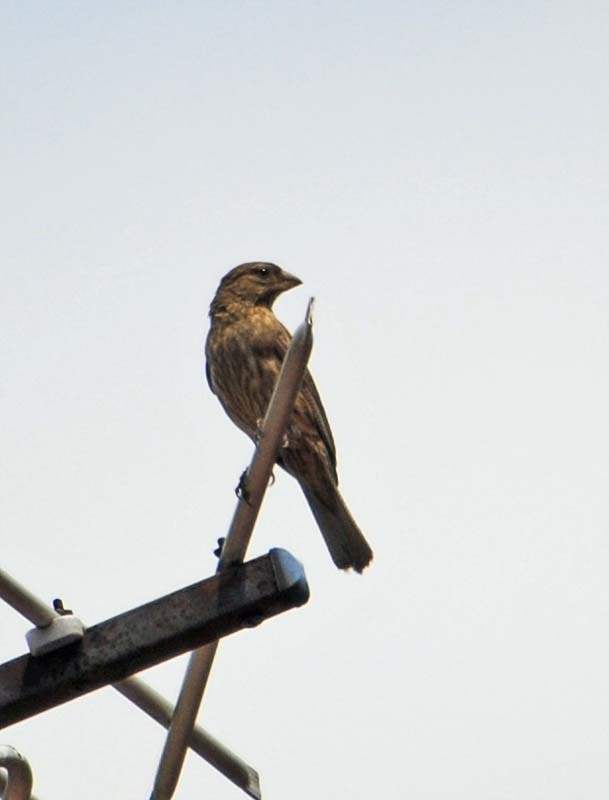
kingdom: Animalia
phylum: Chordata
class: Aves
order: Passeriformes
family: Fringillidae
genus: Haemorhous
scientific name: Haemorhous mexicanus
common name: House finch
